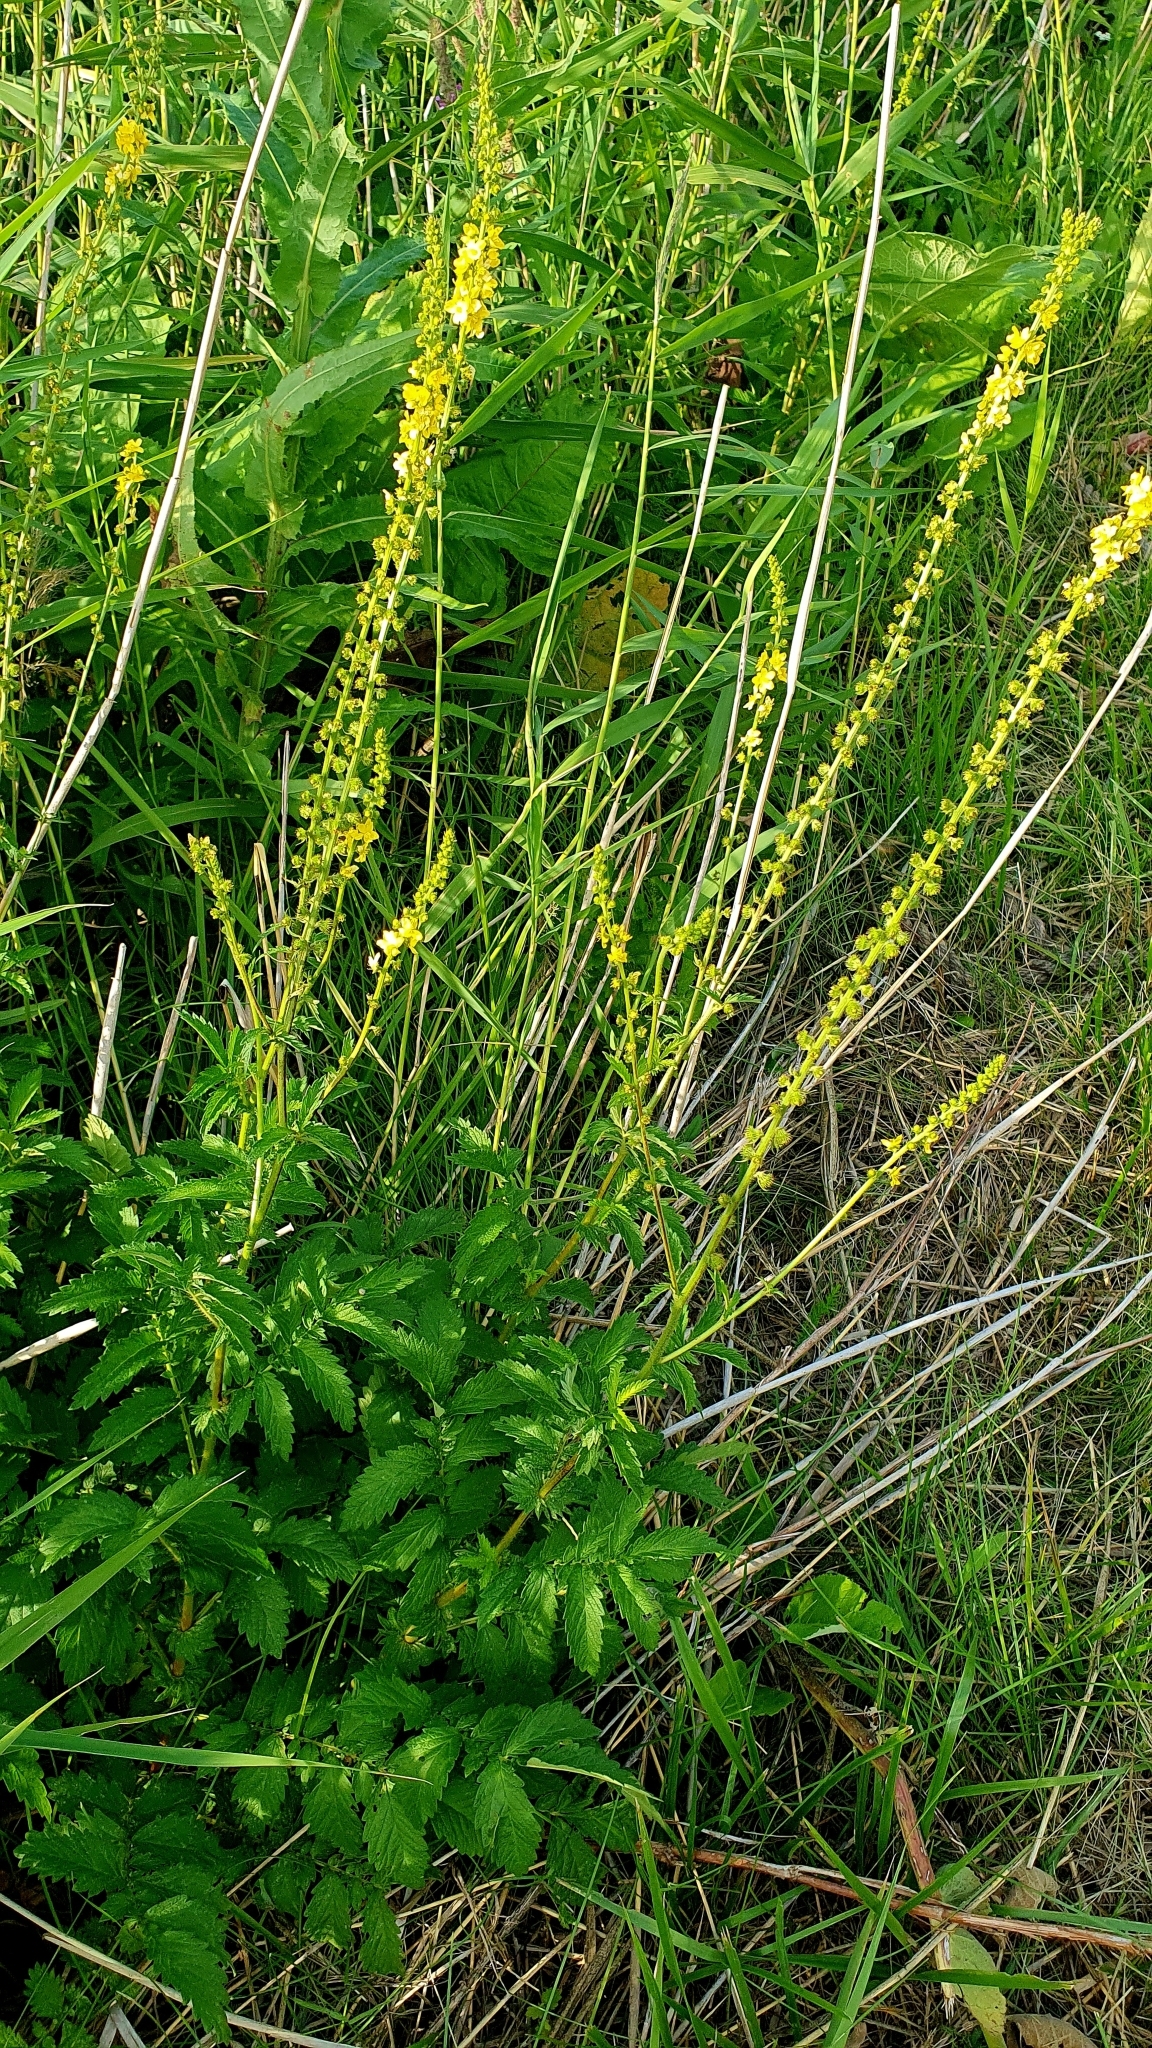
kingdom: Plantae
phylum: Tracheophyta
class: Magnoliopsida
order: Rosales
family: Rosaceae
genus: Agrimonia
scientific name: Agrimonia eupatoria
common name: Agrimony
